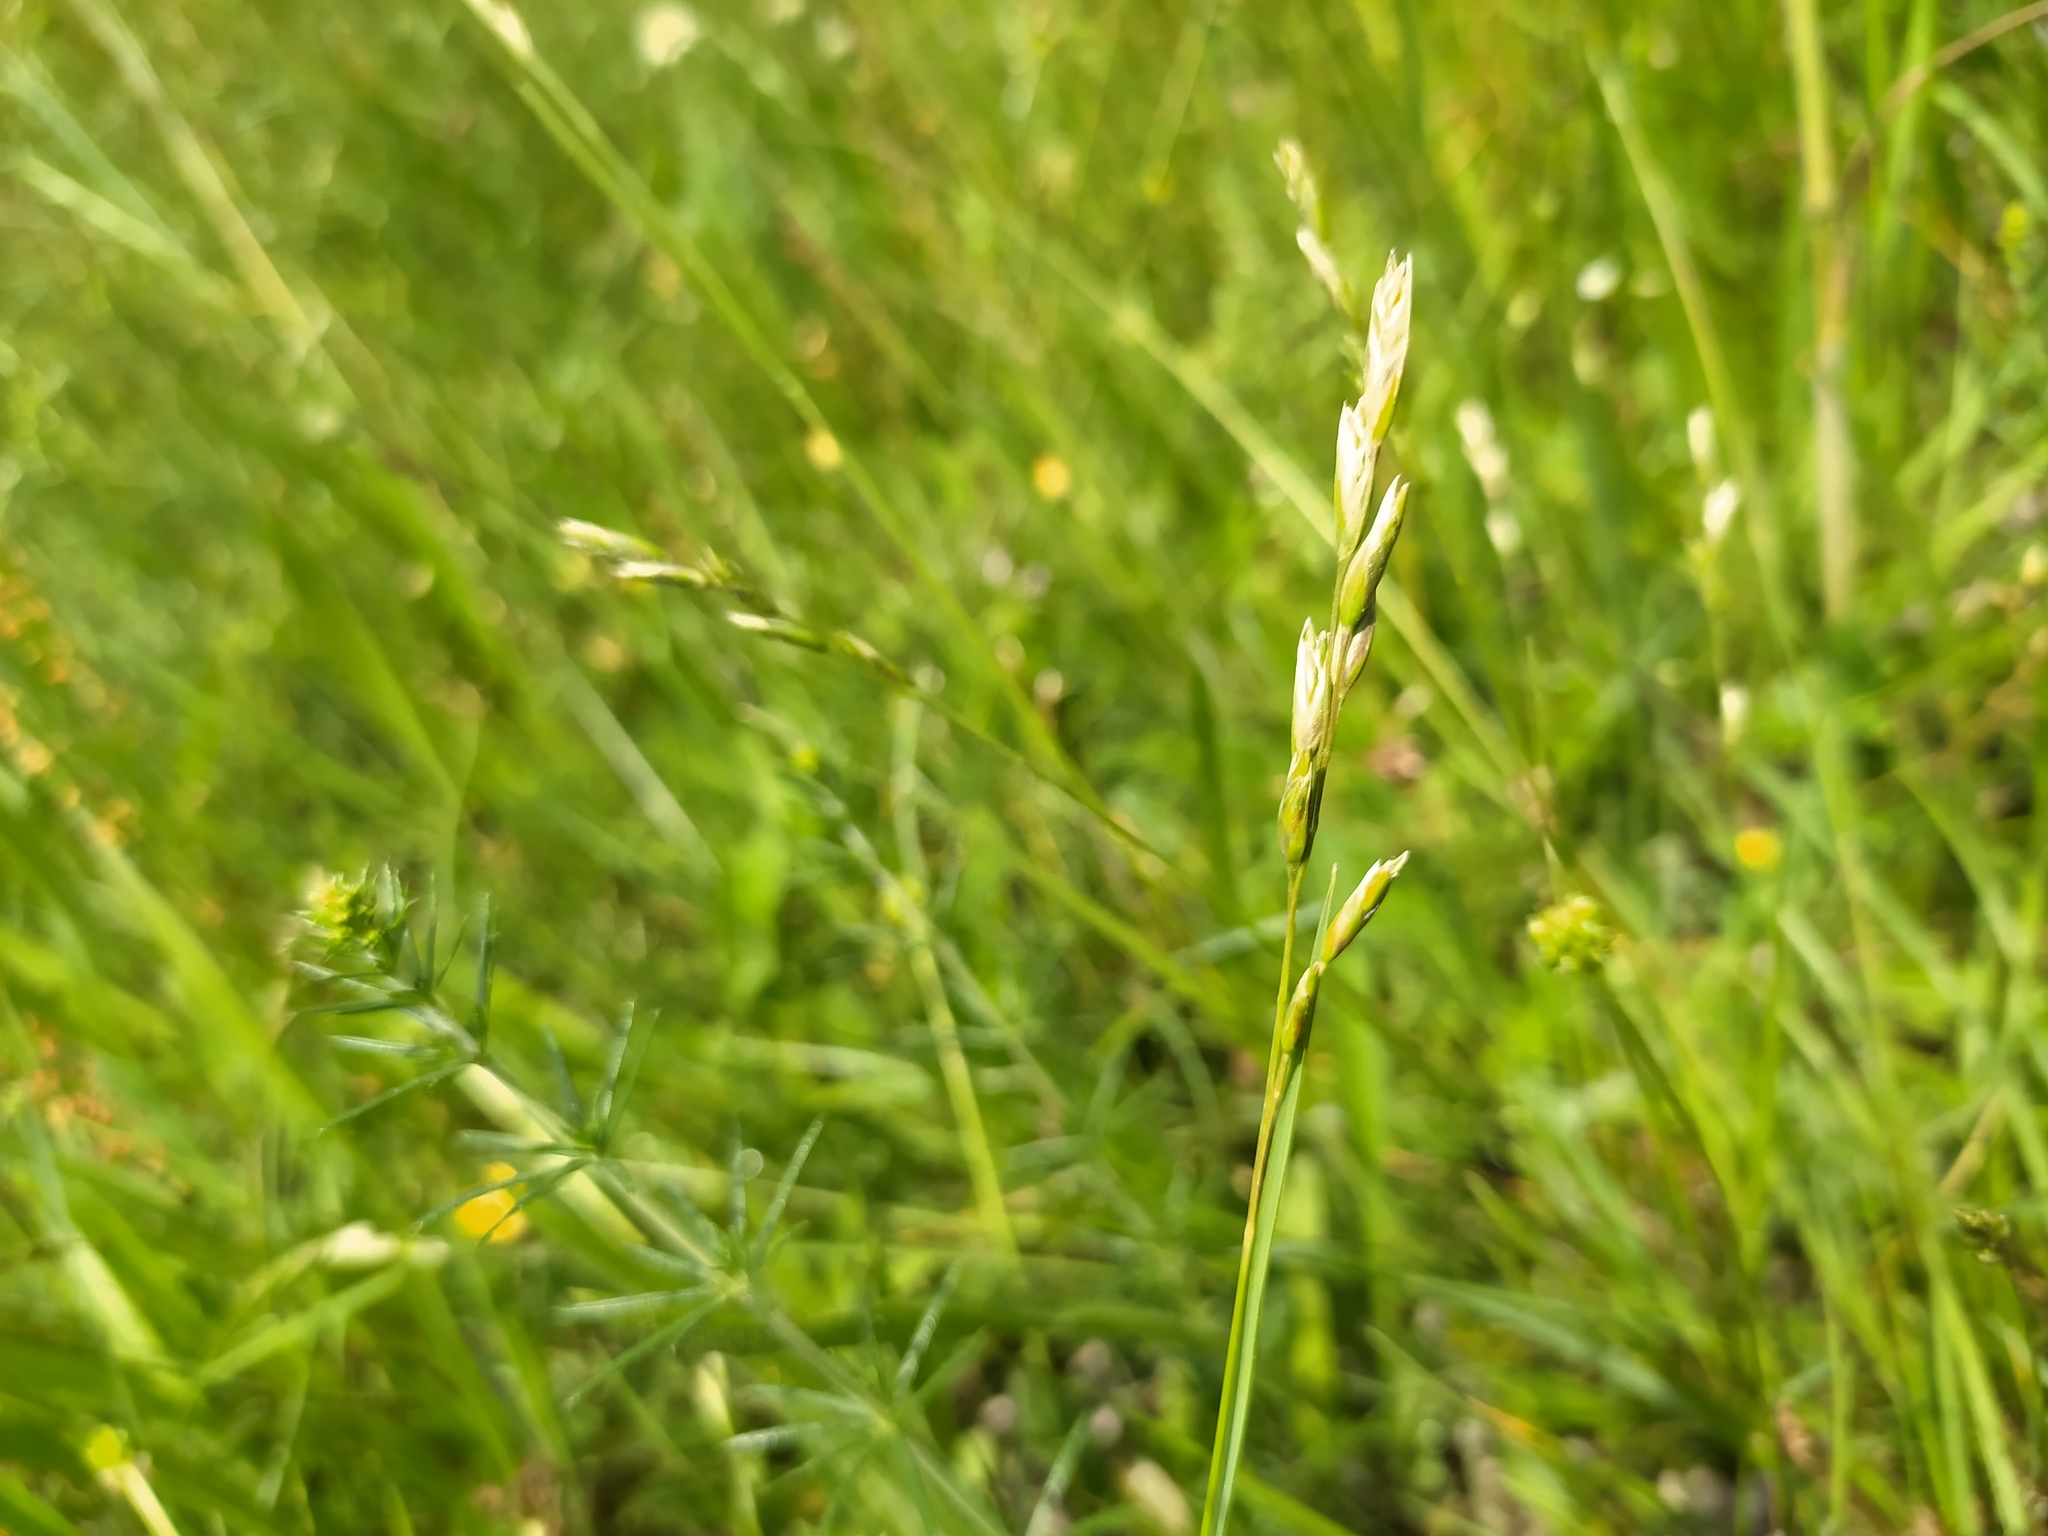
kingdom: Plantae
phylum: Tracheophyta
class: Liliopsida
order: Poales
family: Poaceae
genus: Danthonia
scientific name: Danthonia decumbens
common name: Common heathgrass
